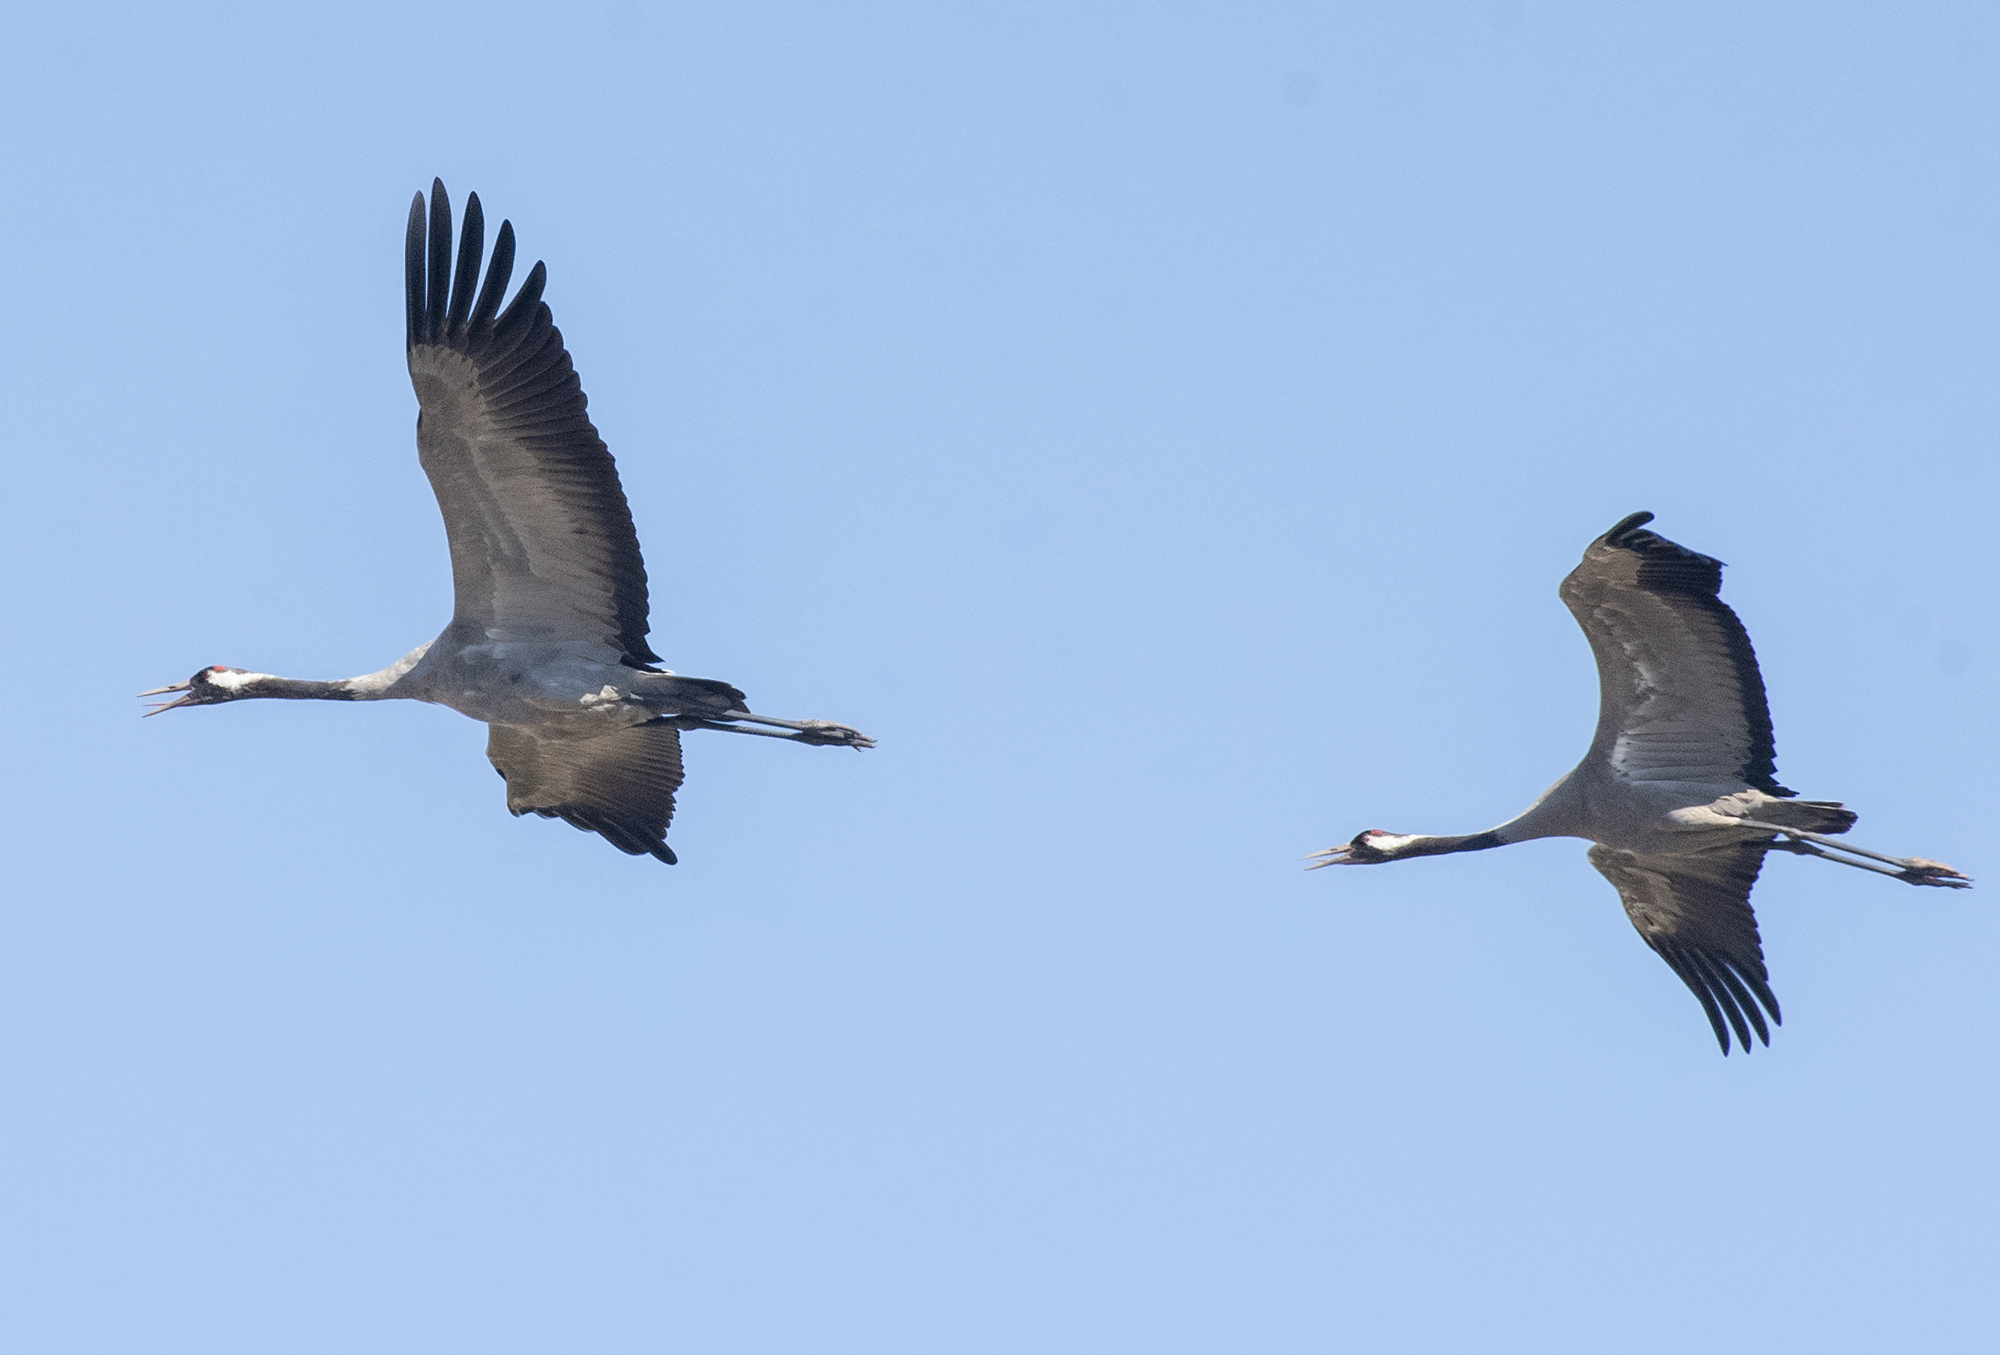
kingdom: Animalia
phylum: Chordata
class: Aves
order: Gruiformes
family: Gruidae
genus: Grus
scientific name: Grus grus
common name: Common crane
